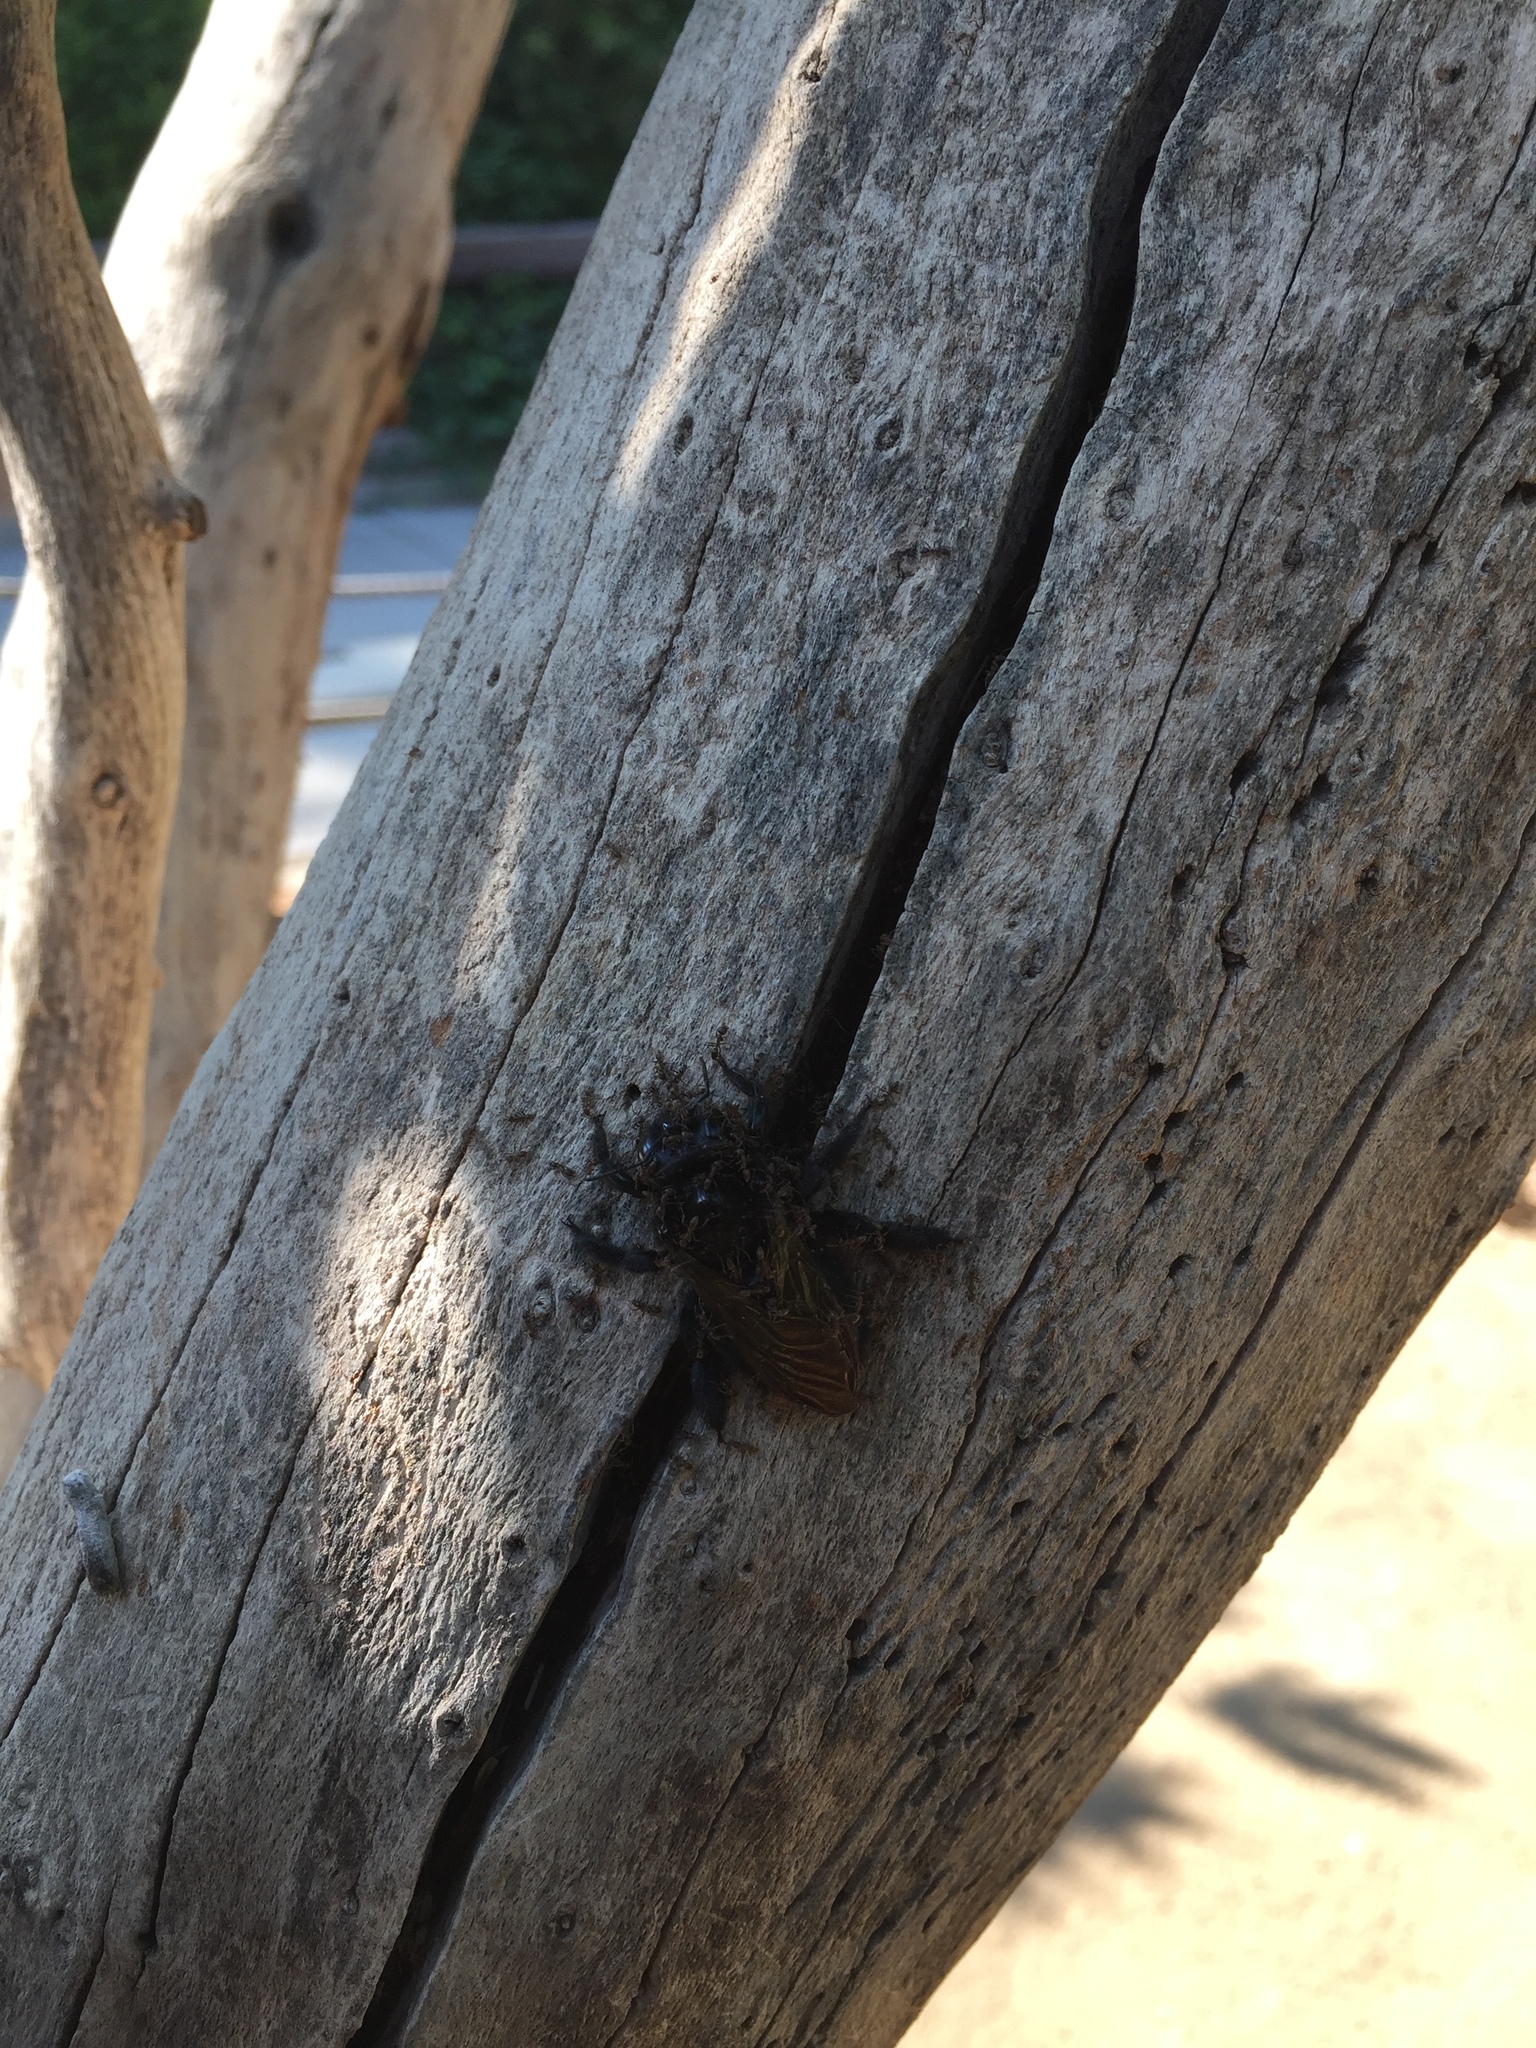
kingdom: Animalia
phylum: Arthropoda
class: Insecta
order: Hymenoptera
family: Apidae
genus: Xylocopa
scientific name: Xylocopa sonorina
